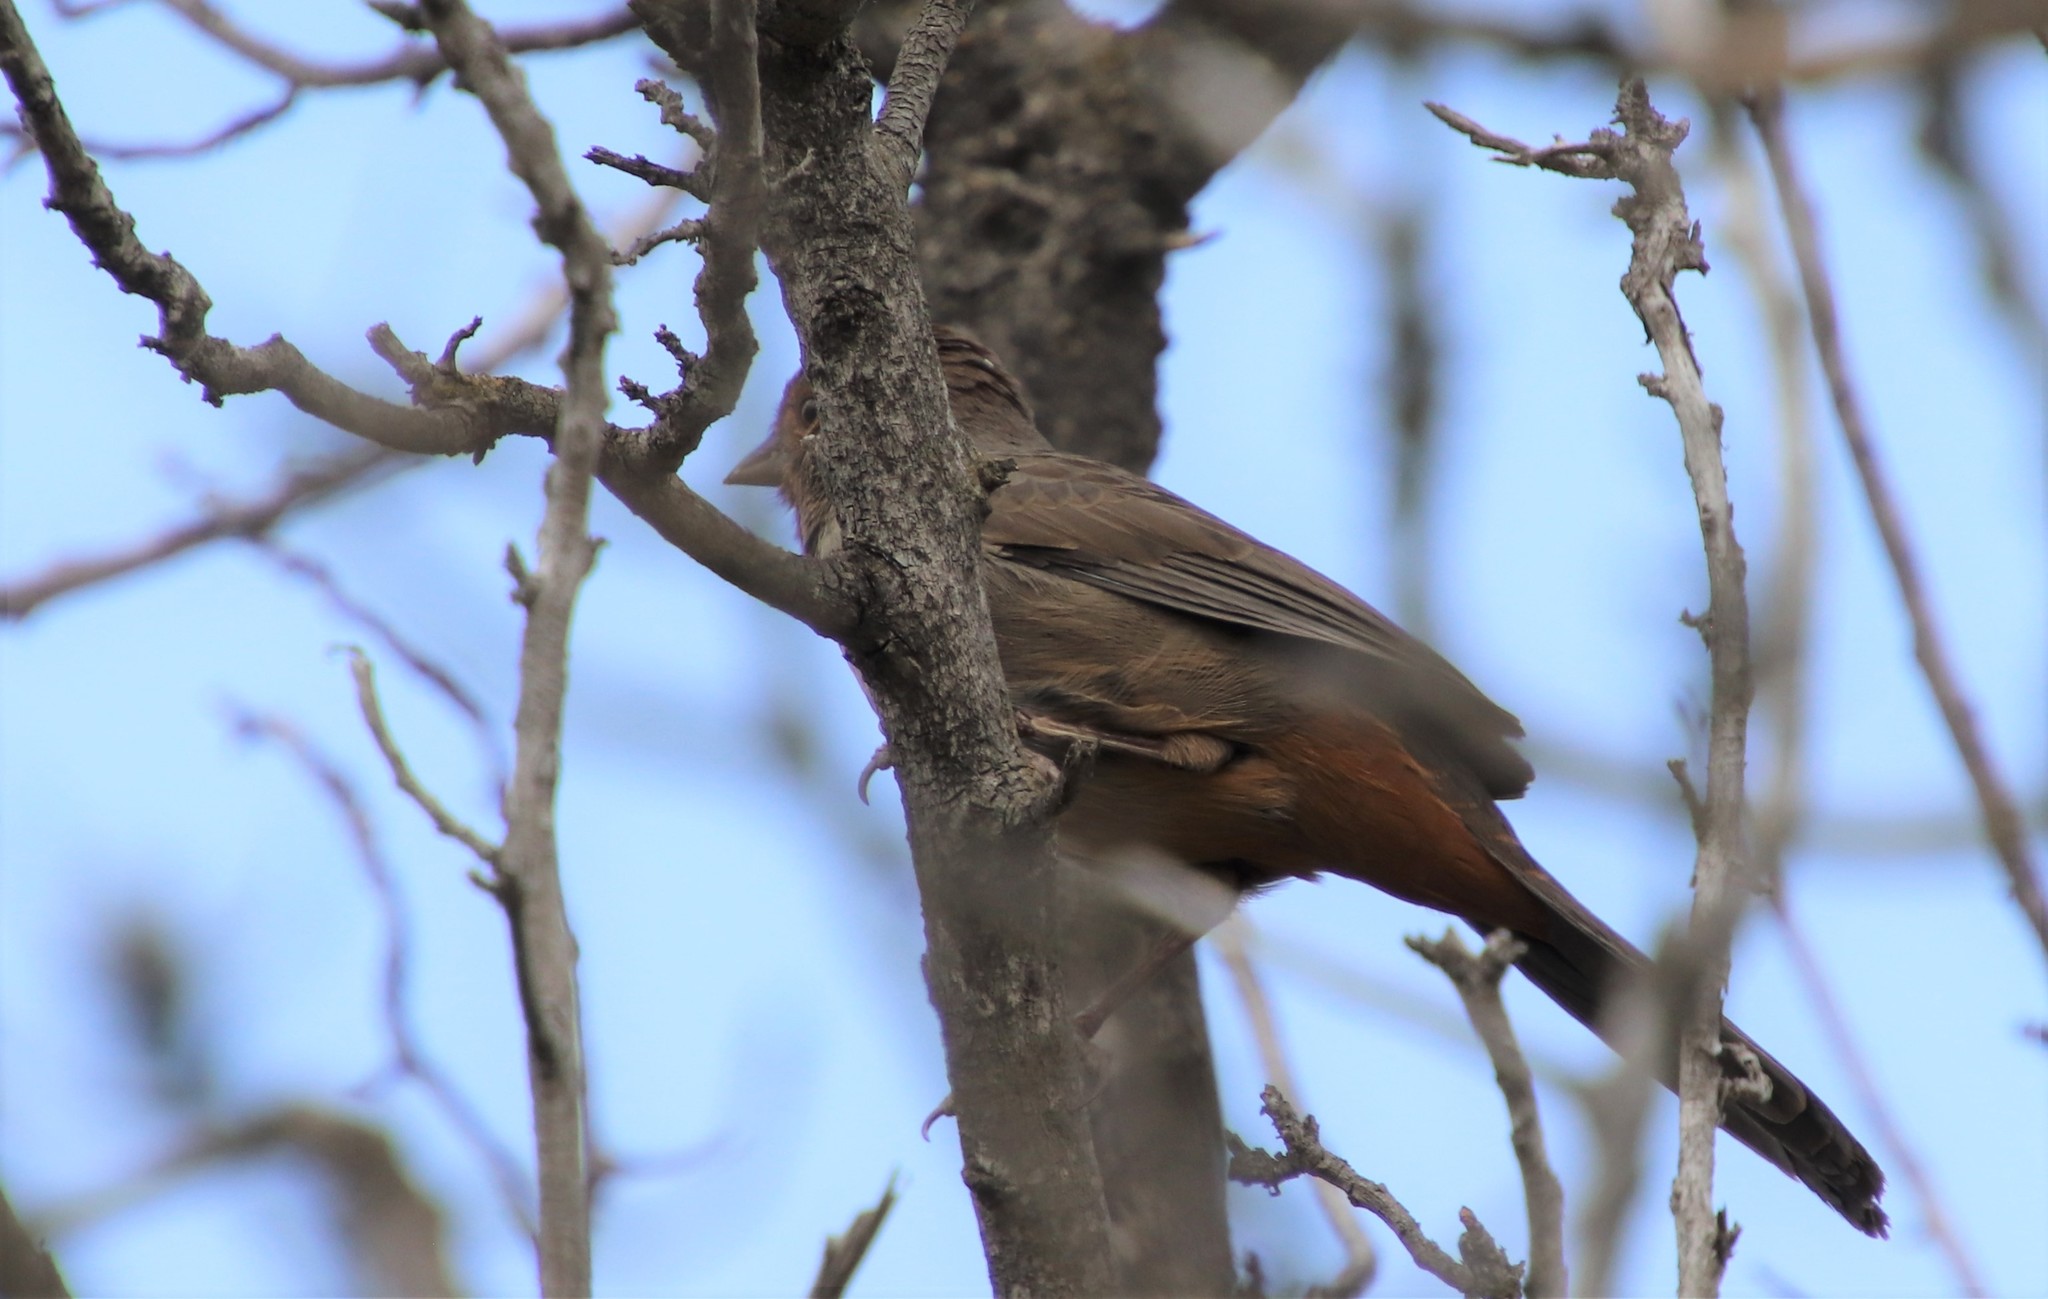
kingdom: Animalia
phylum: Chordata
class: Aves
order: Passeriformes
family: Passerellidae
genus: Melozone
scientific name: Melozone crissalis
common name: California towhee
